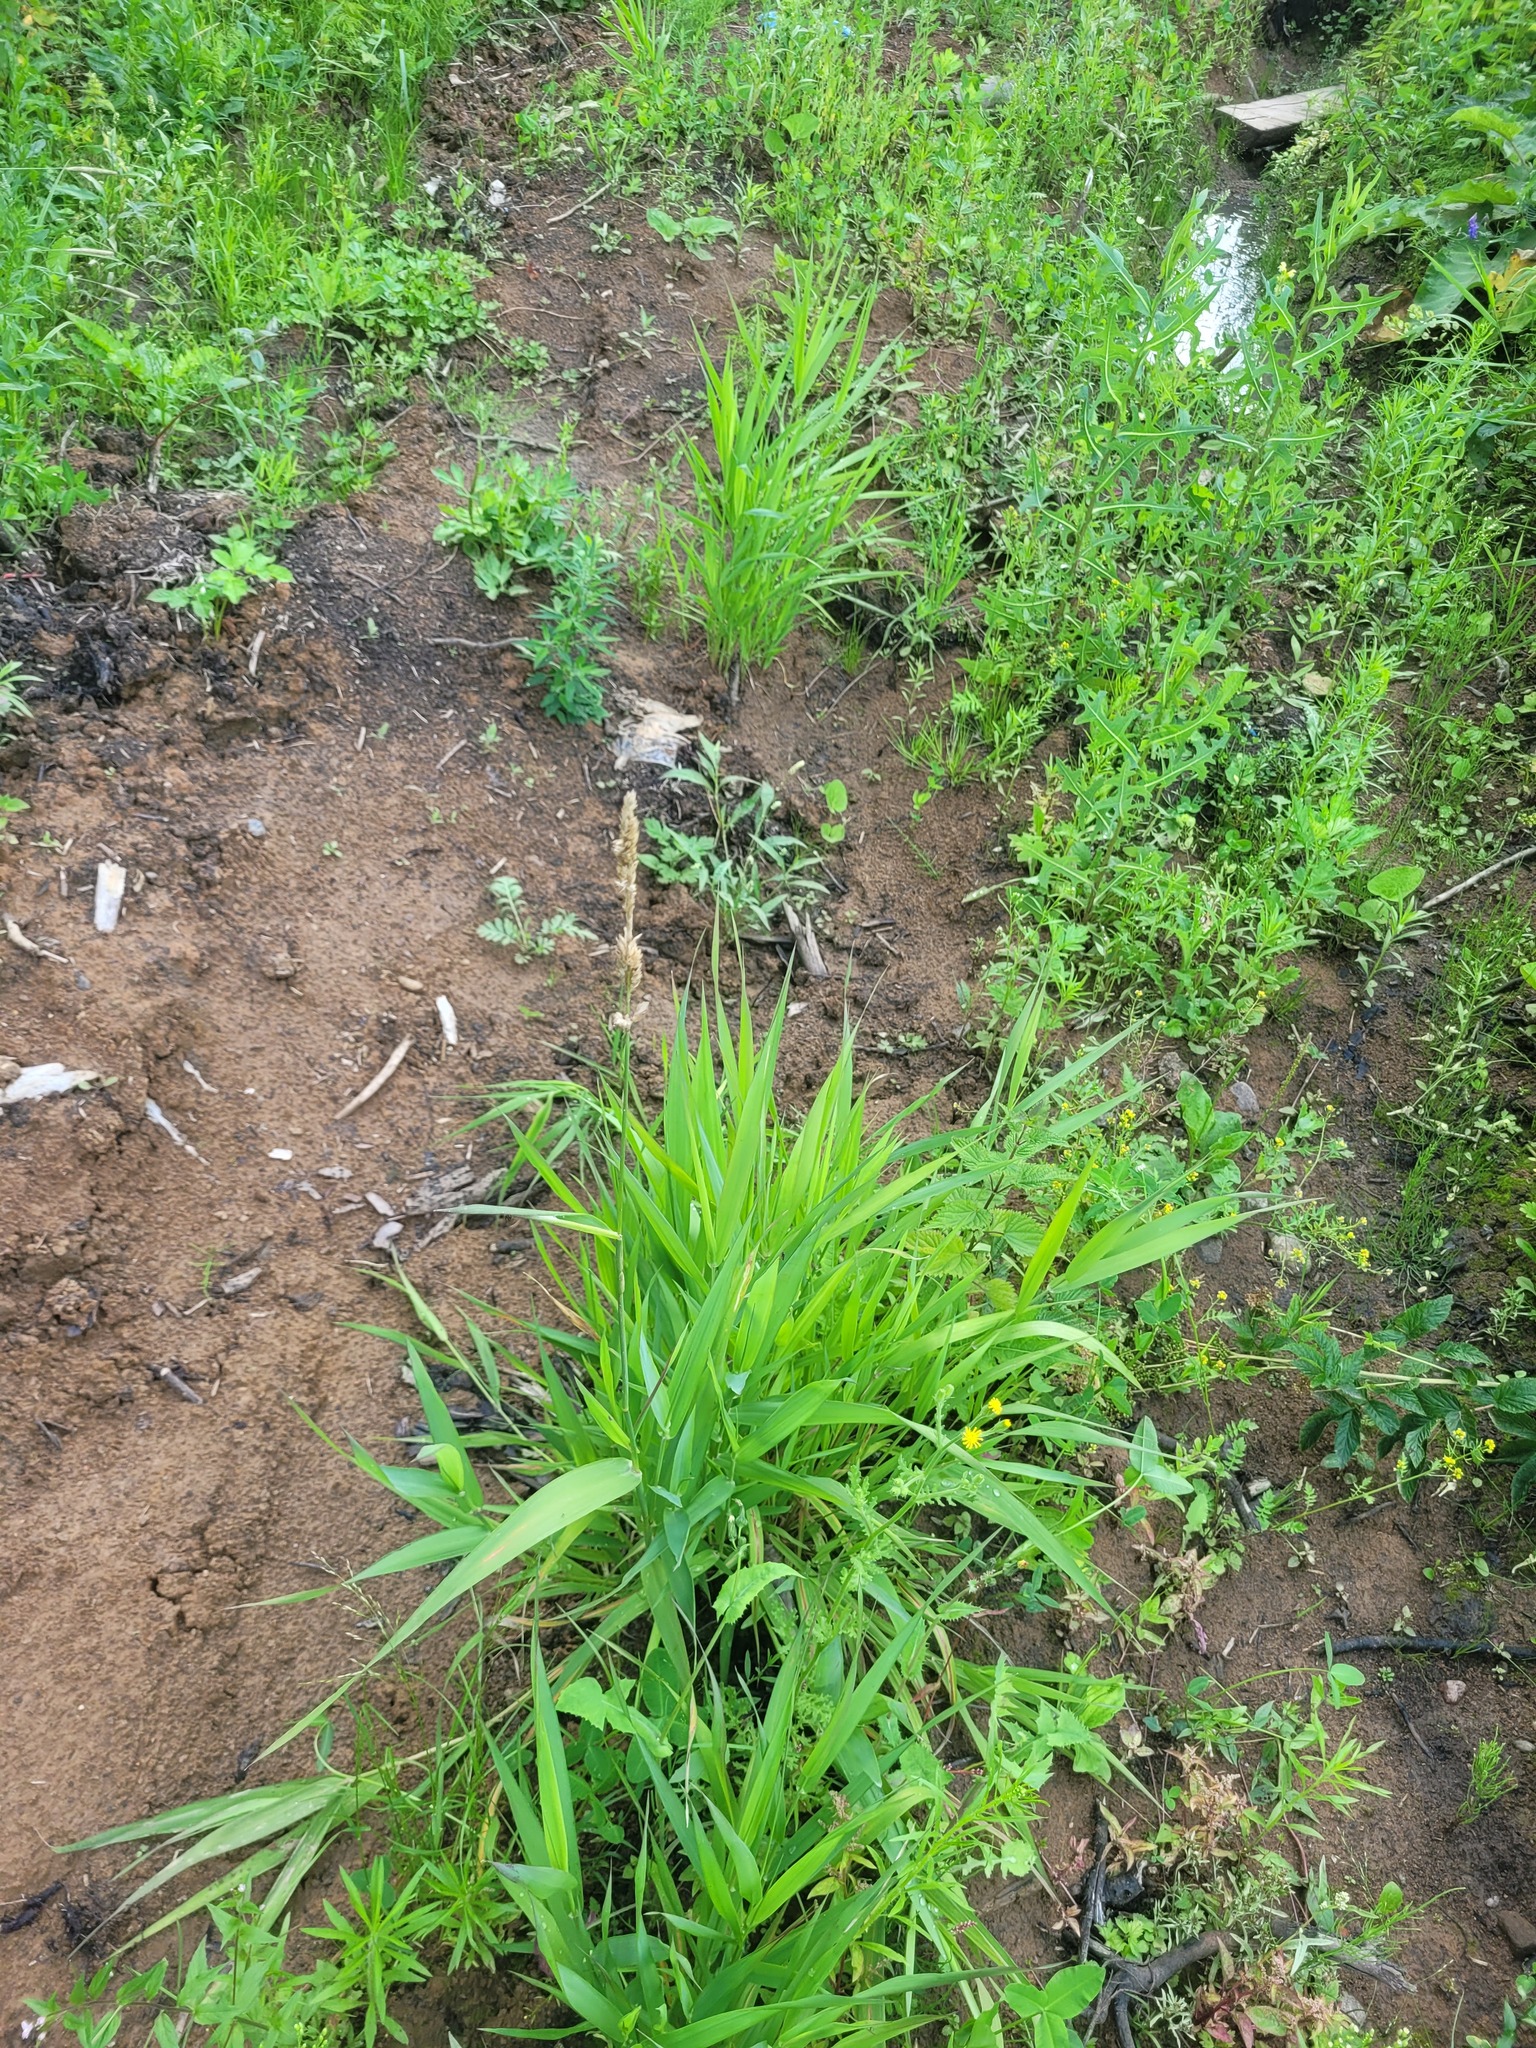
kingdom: Plantae
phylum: Tracheophyta
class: Liliopsida
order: Poales
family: Poaceae
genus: Phalaris
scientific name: Phalaris arundinacea
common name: Reed canary-grass
